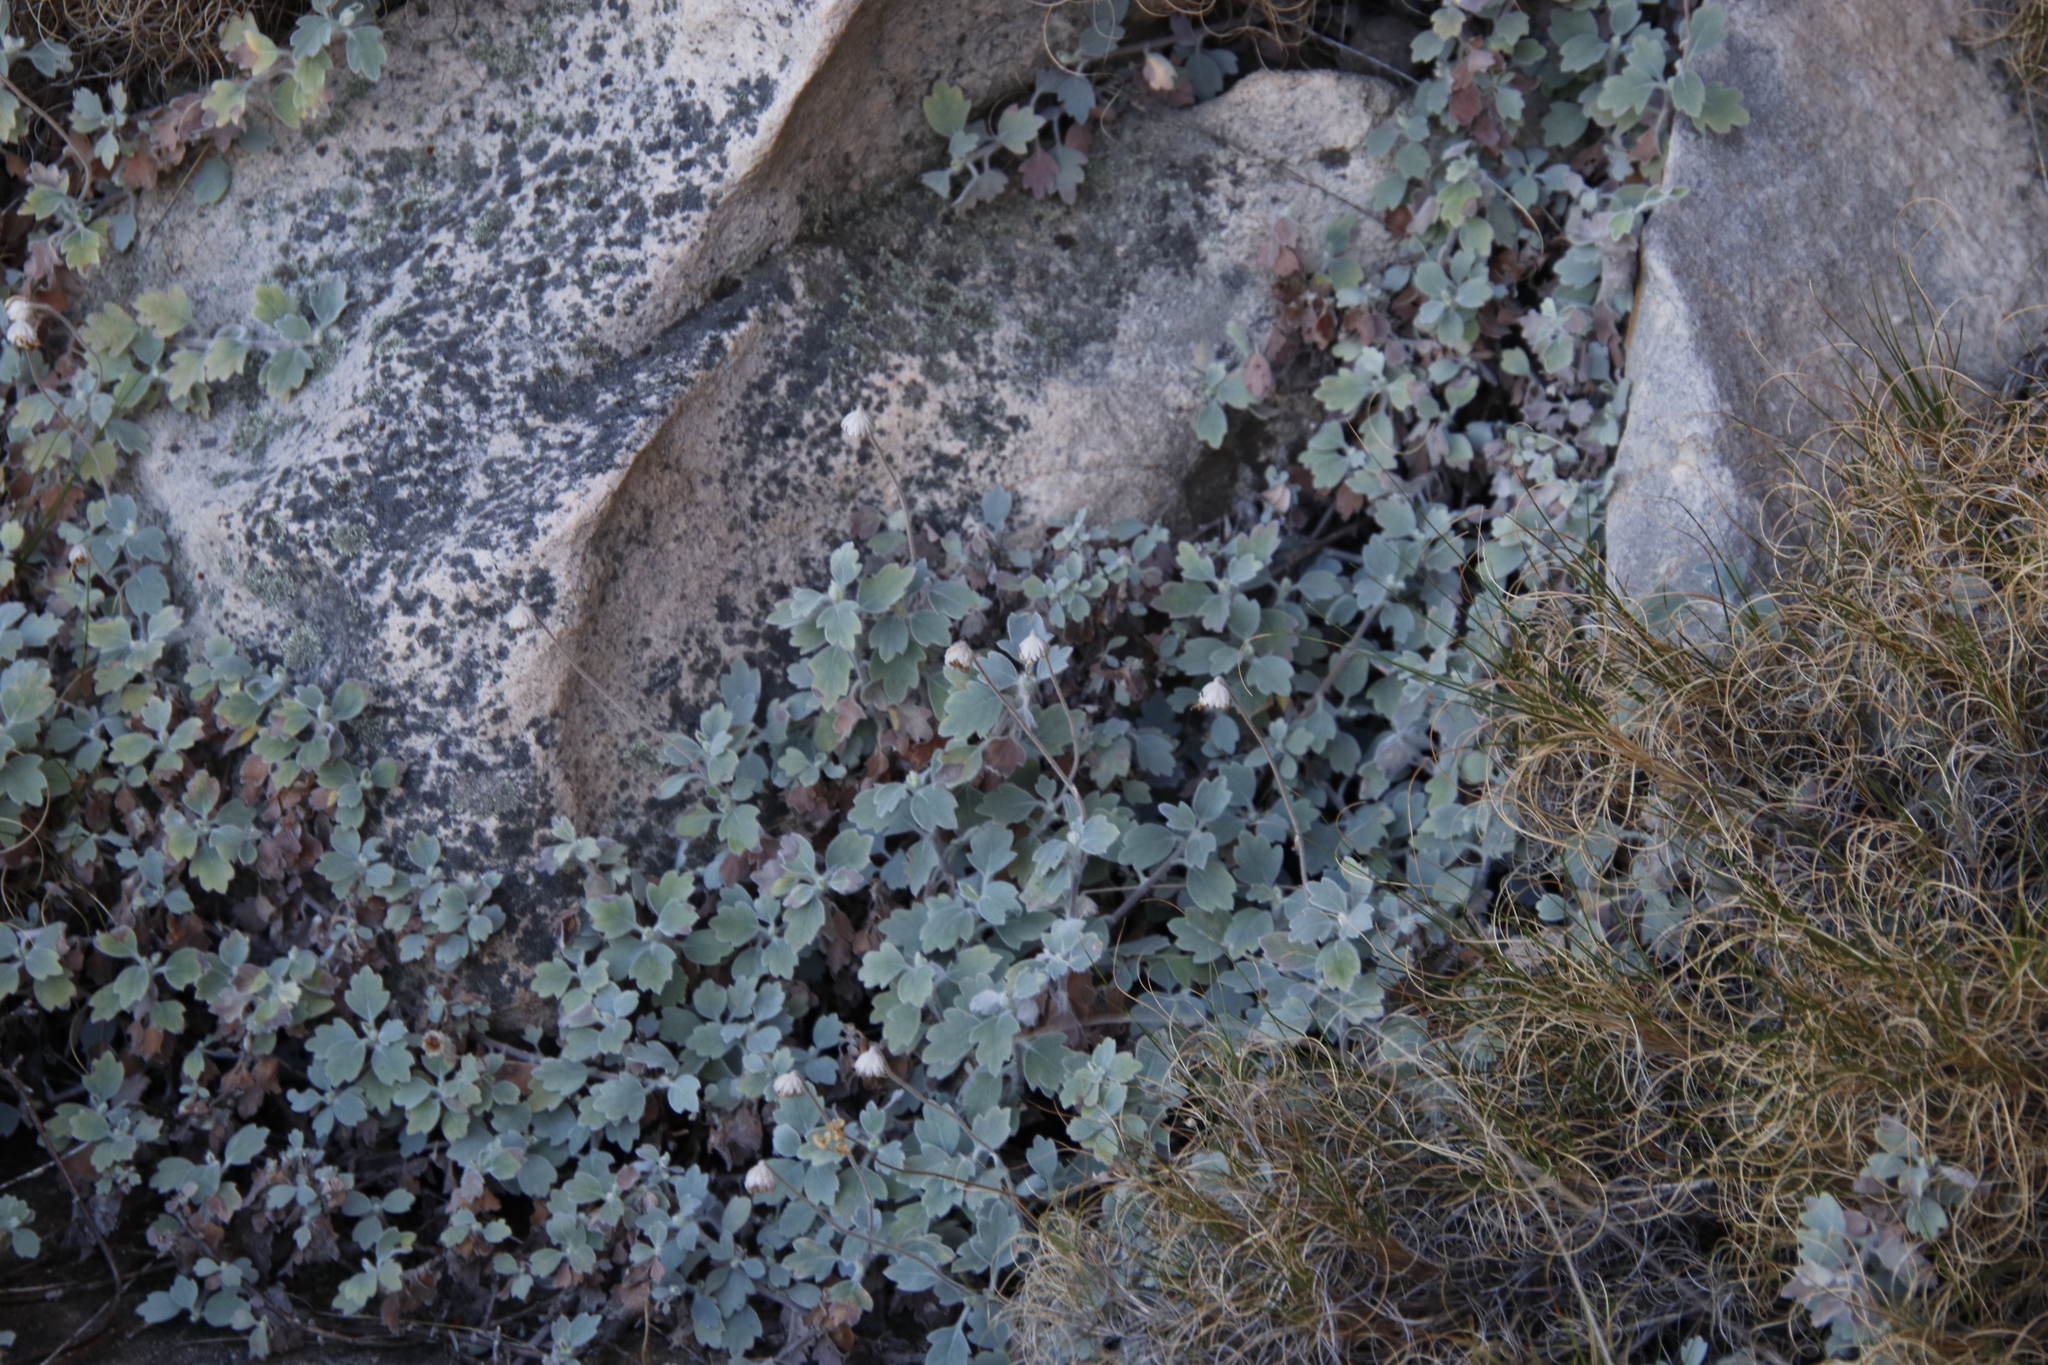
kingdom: Plantae
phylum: Tracheophyta
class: Magnoliopsida
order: Asterales
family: Asteraceae
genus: Lidbeckia
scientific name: Lidbeckia quinqueloba
